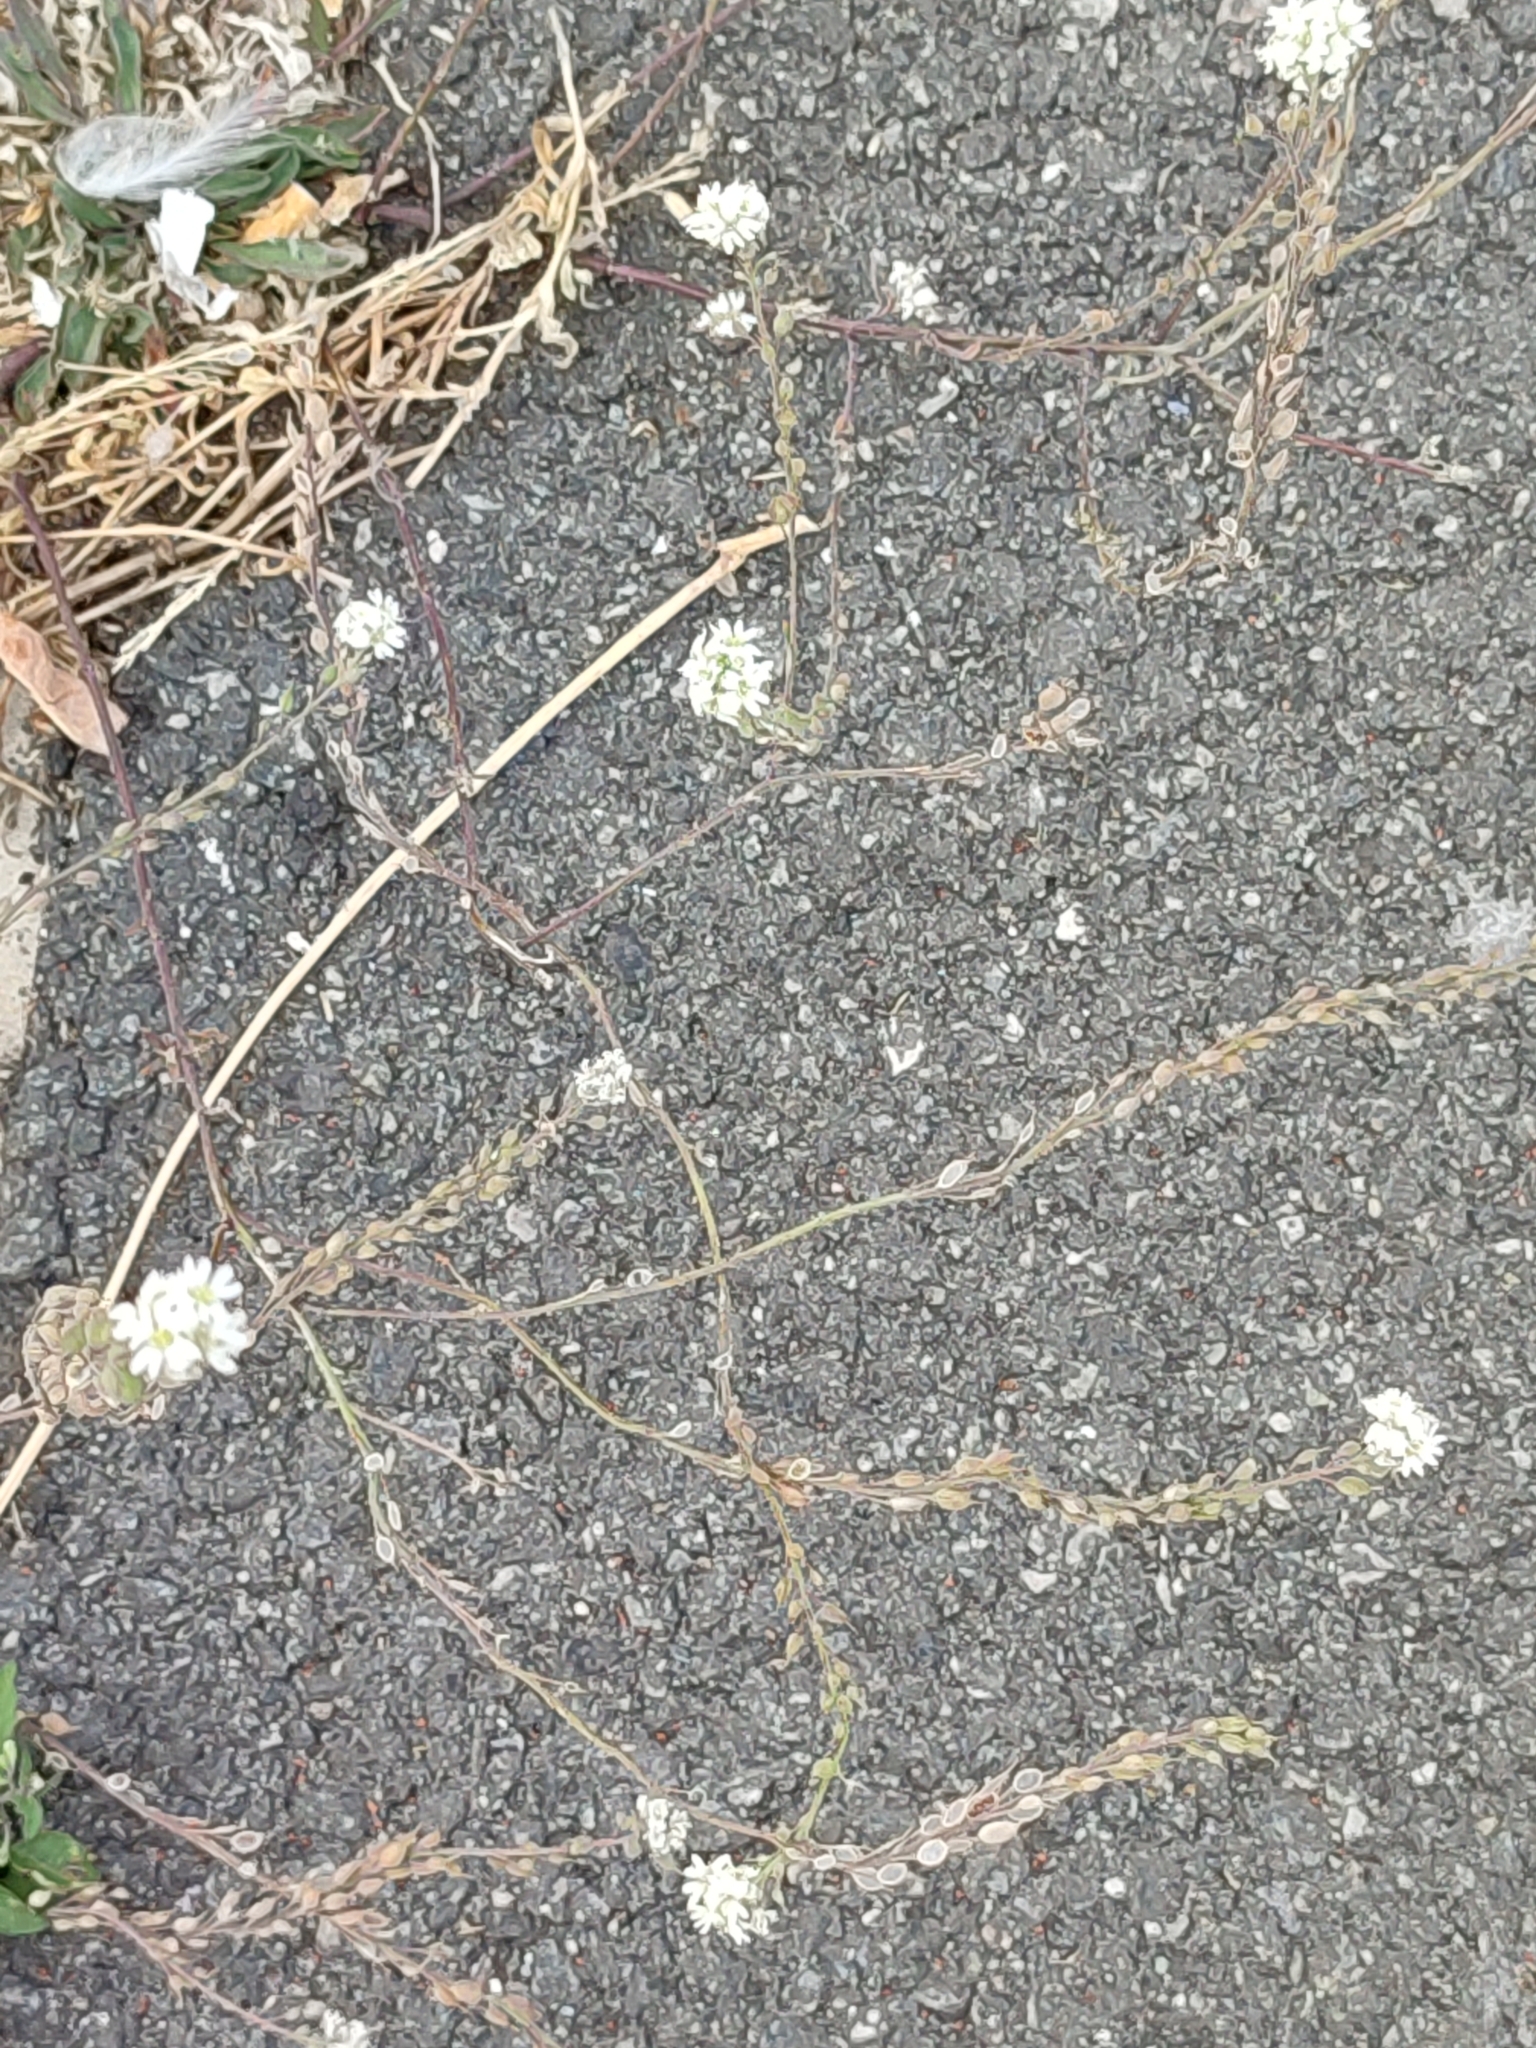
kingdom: Plantae
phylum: Tracheophyta
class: Magnoliopsida
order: Brassicales
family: Brassicaceae
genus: Berteroa
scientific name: Berteroa incana
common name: Hoary alison
